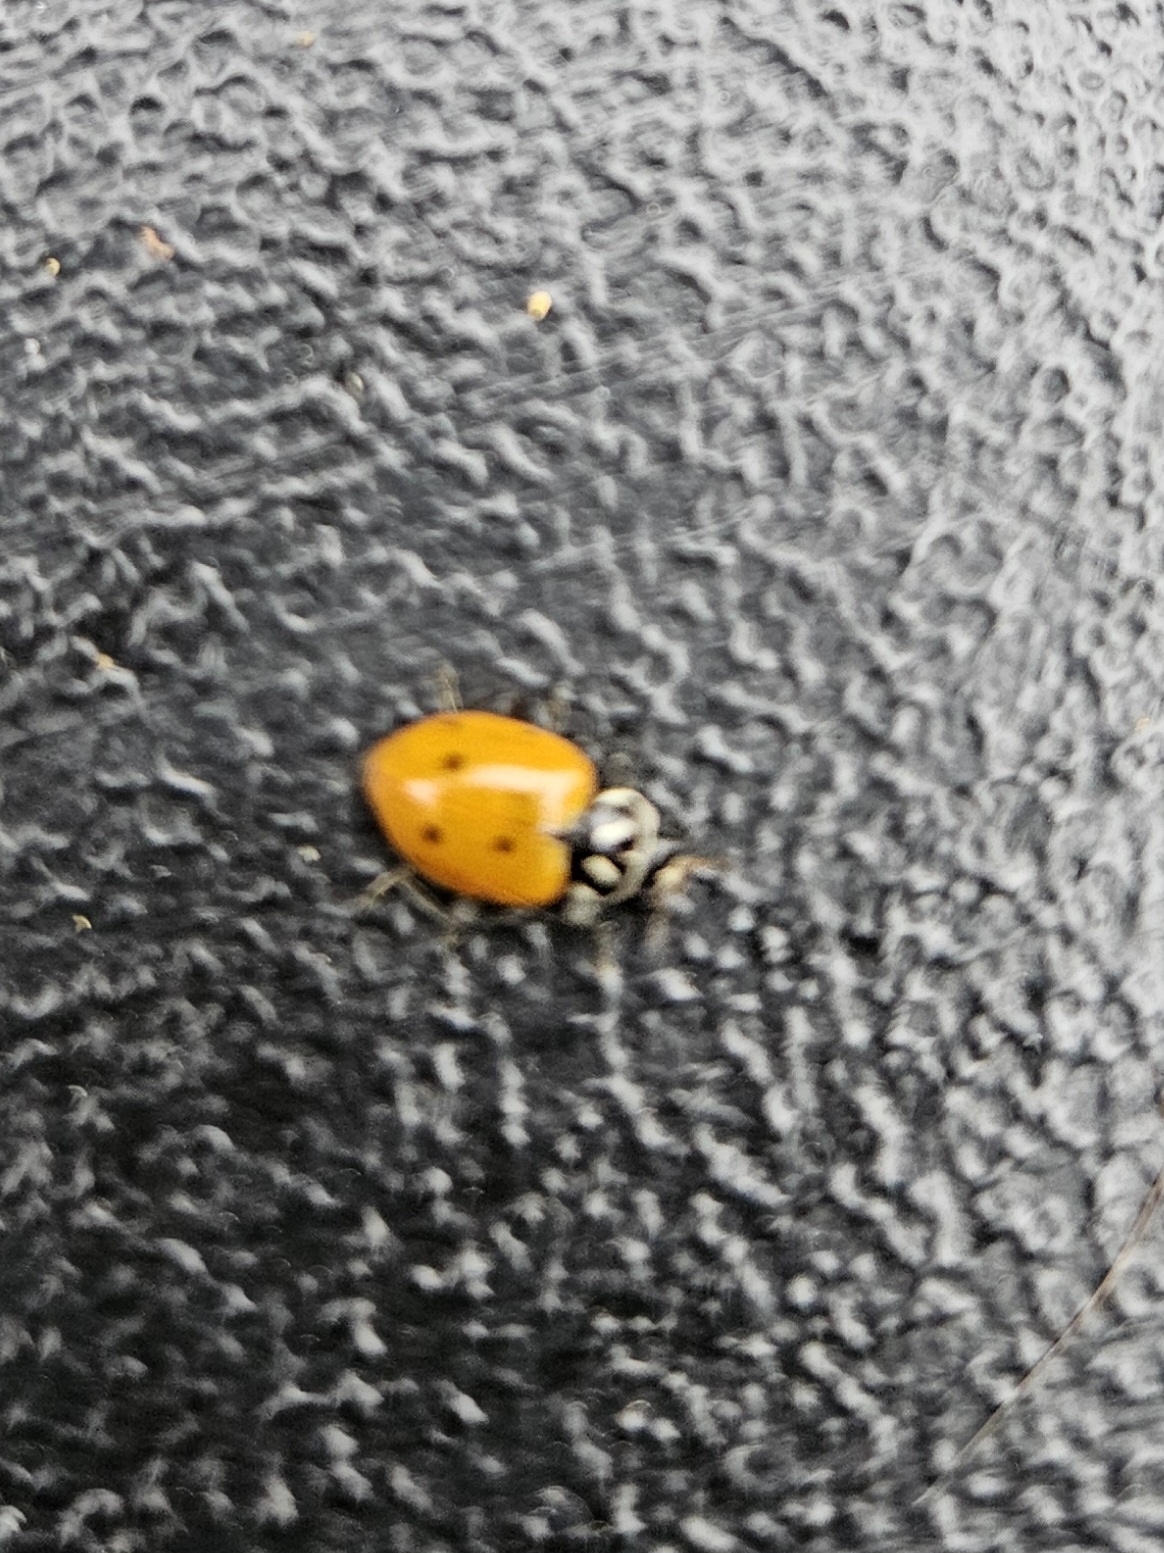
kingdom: Animalia
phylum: Arthropoda
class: Insecta
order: Coleoptera
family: Coccinellidae
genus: Hippodamia
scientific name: Hippodamia convergens
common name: Convergent lady beetle
